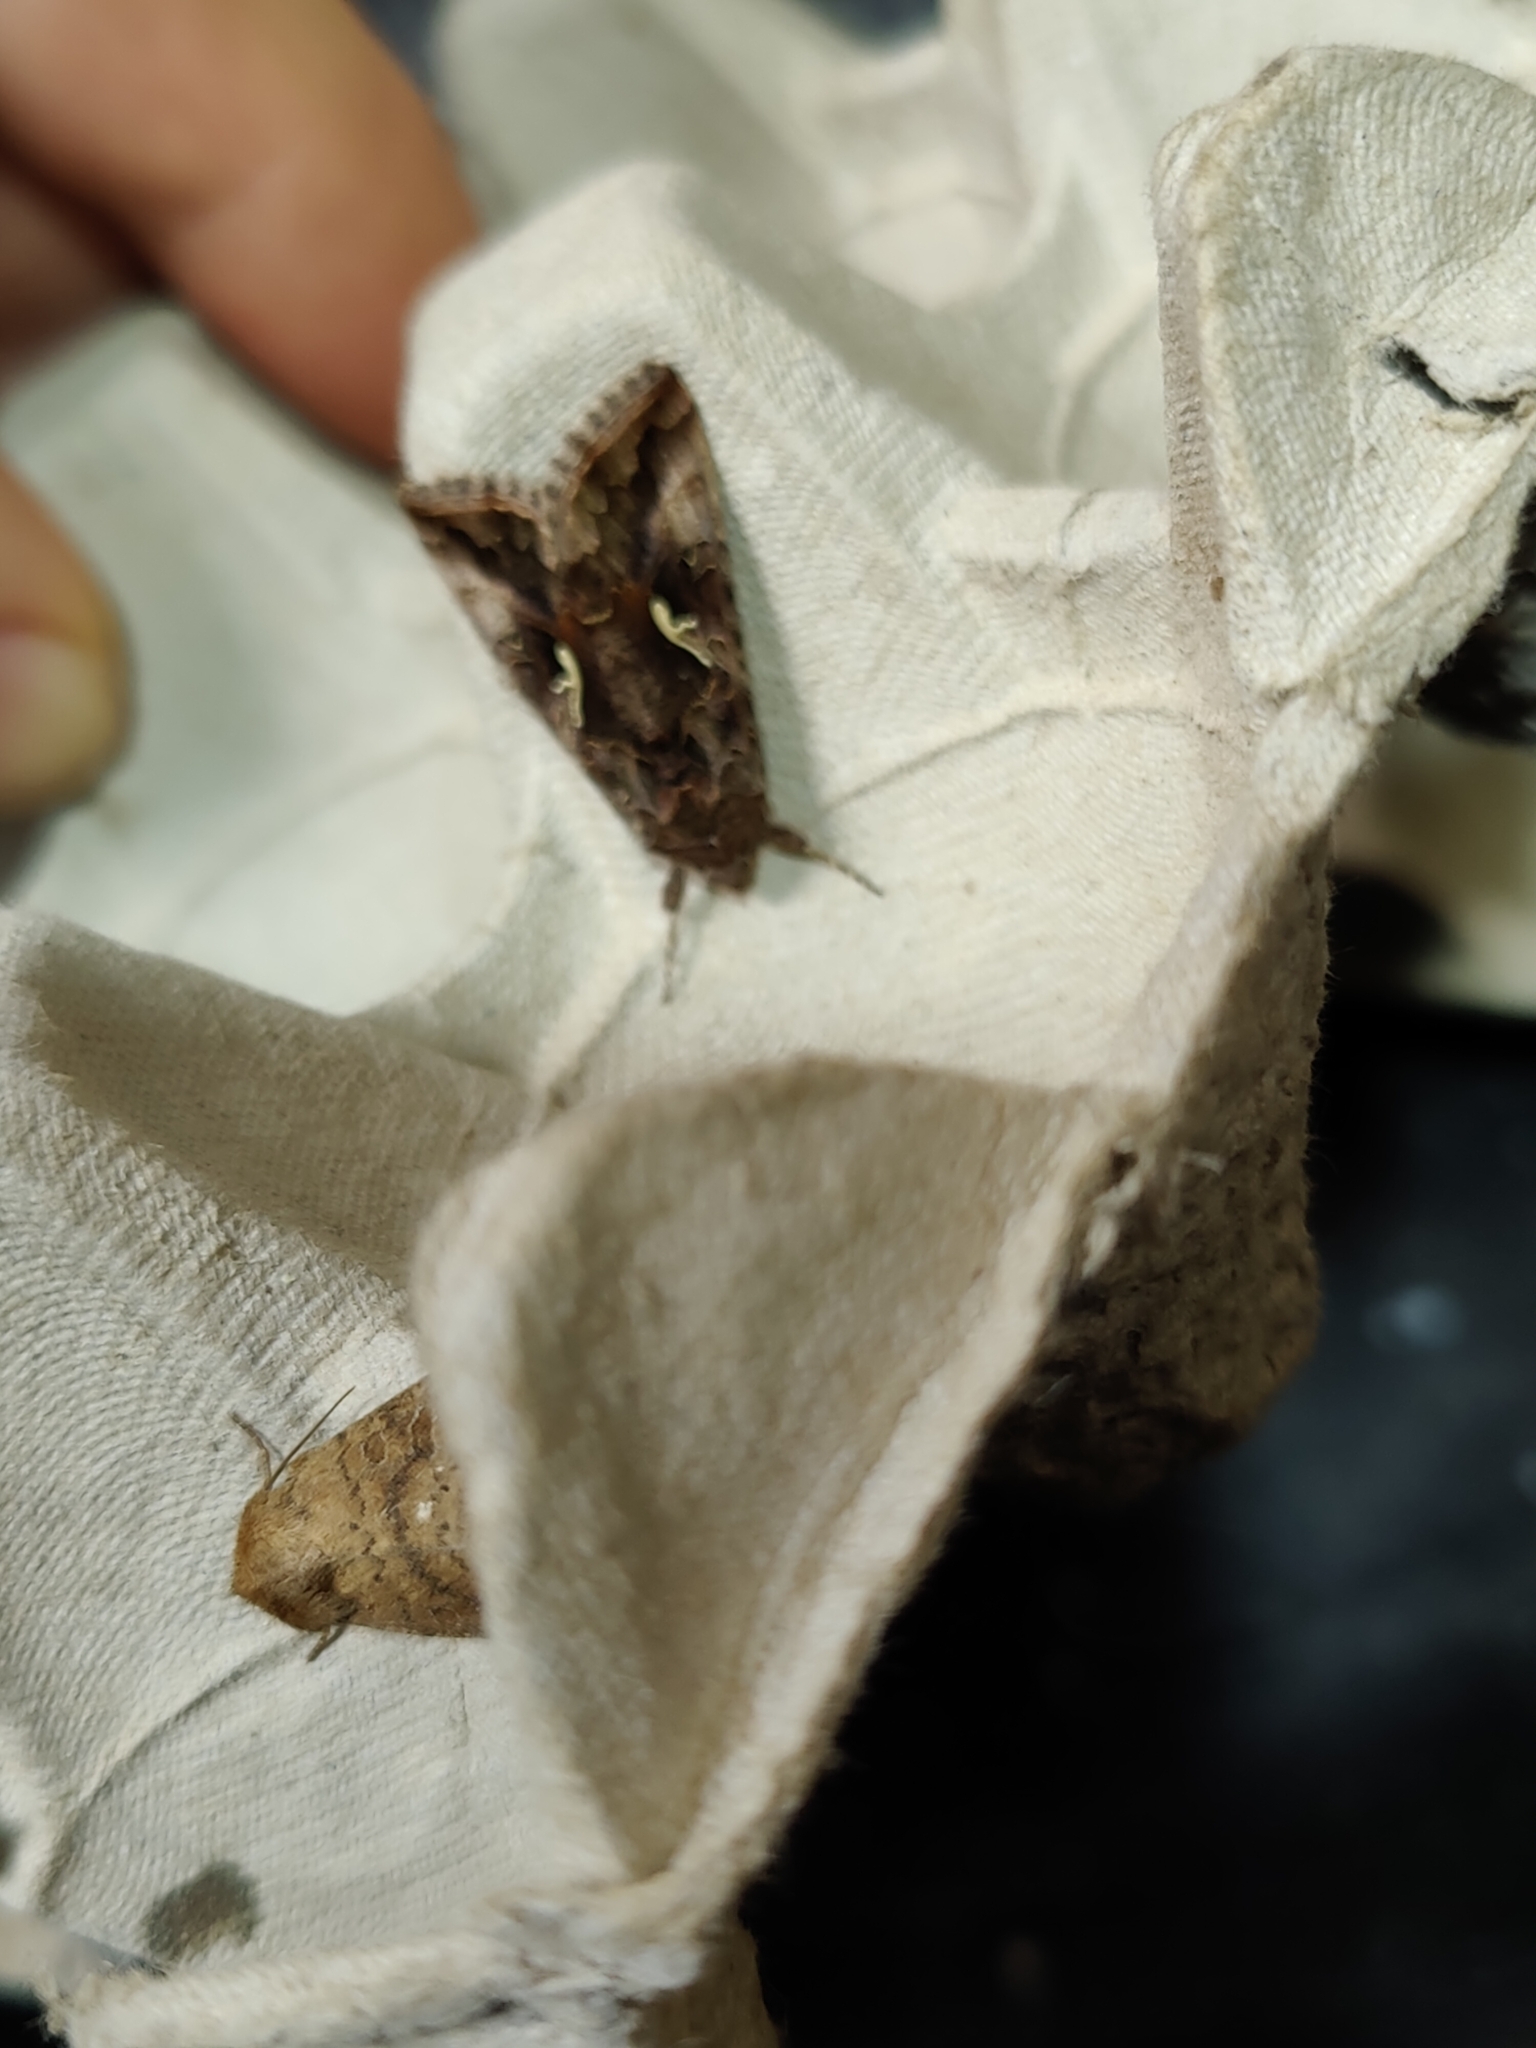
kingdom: Animalia
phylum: Arthropoda
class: Insecta
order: Lepidoptera
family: Noctuidae
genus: Autographa
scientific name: Autographa gamma
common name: Silver y
